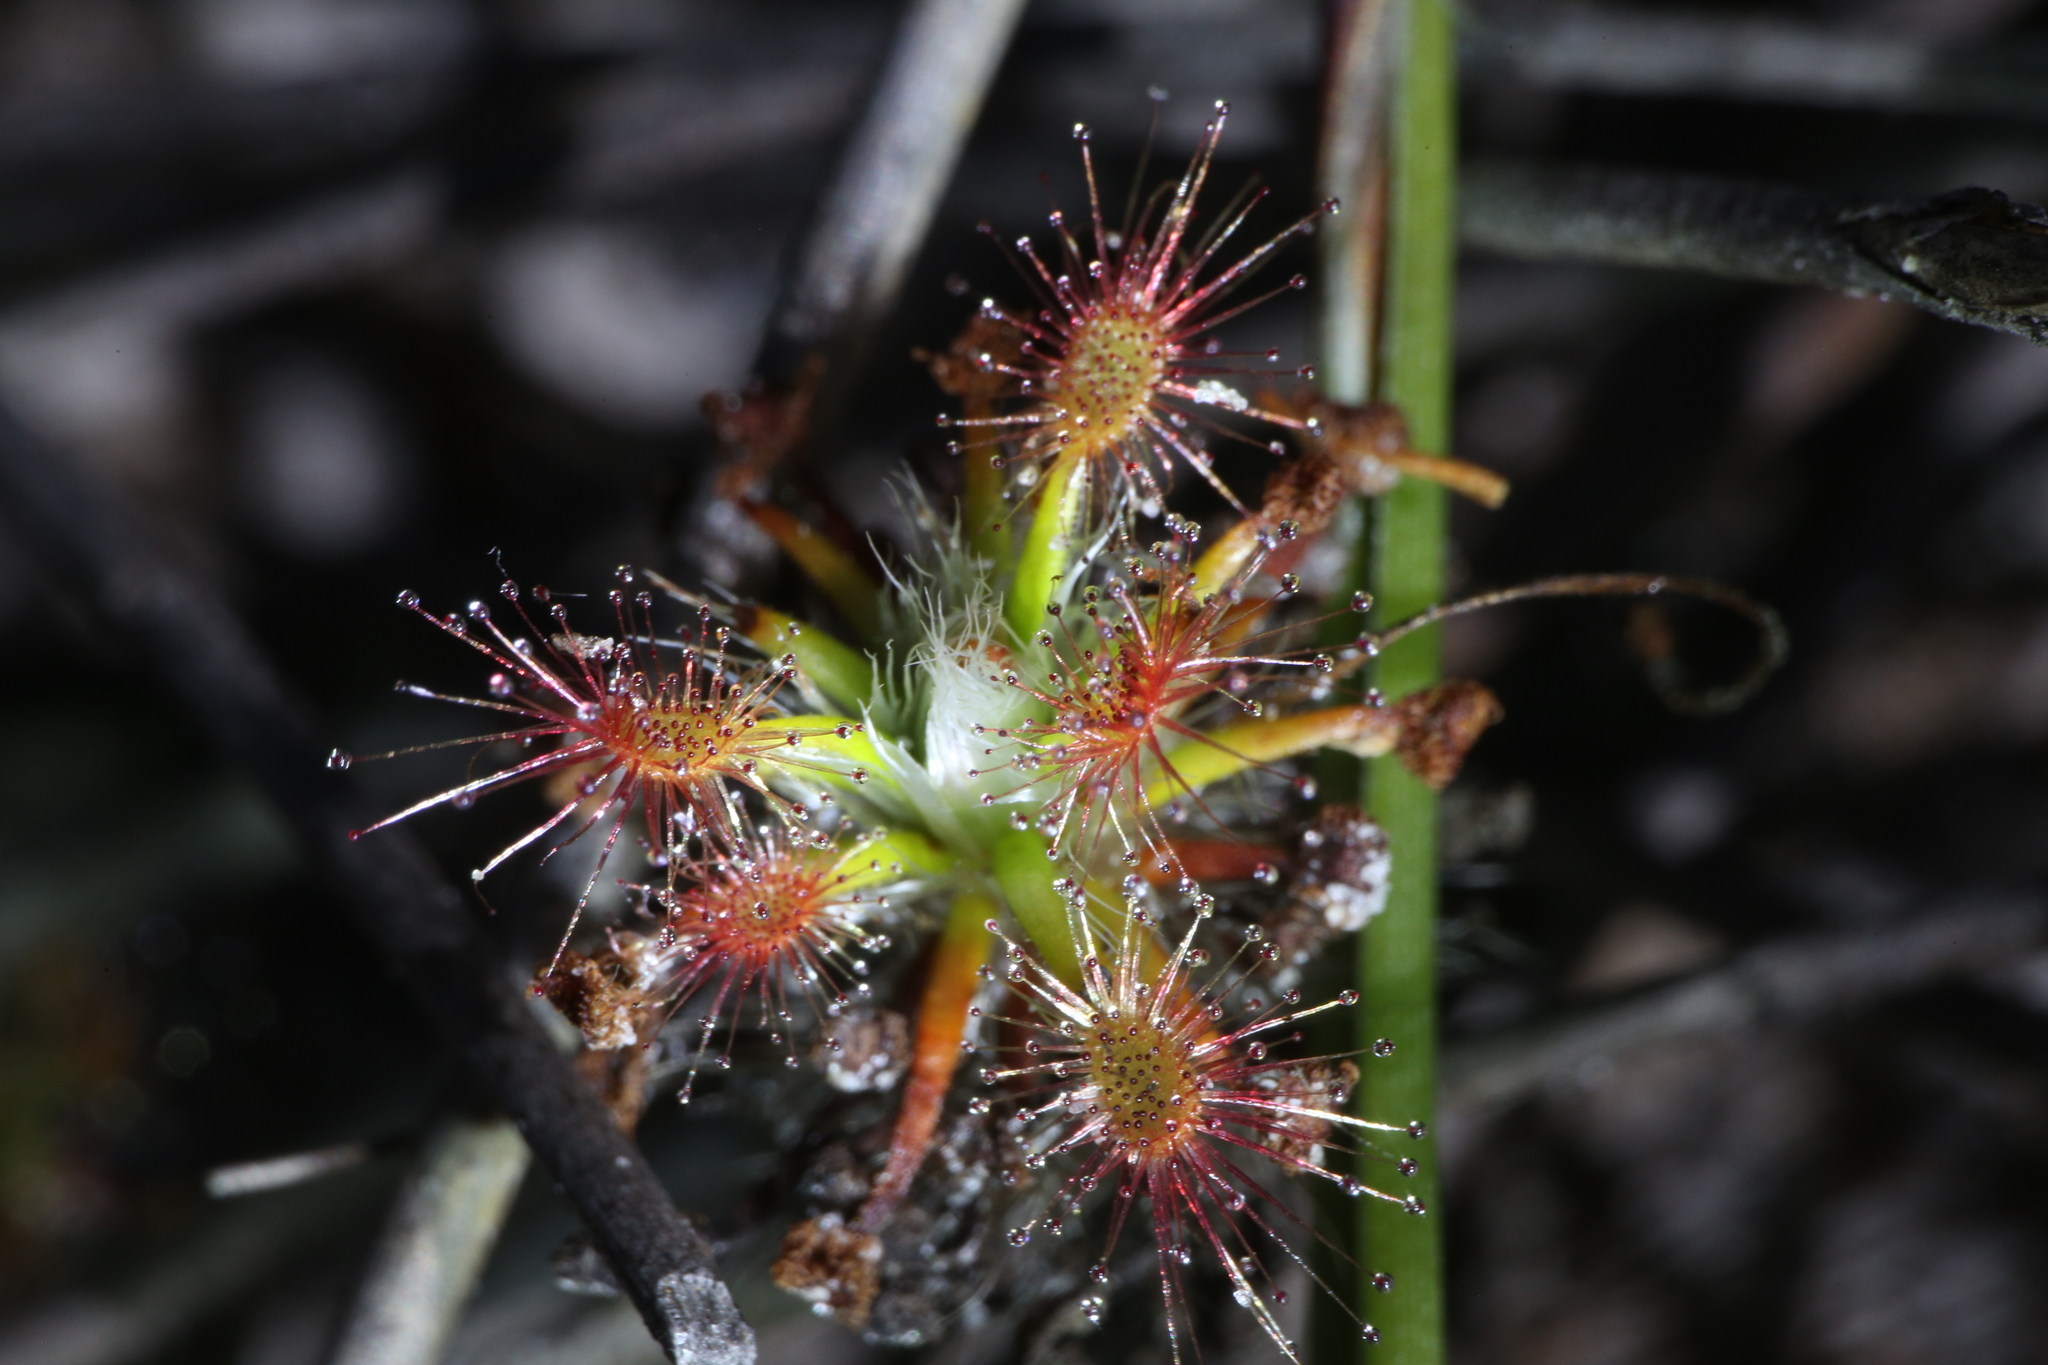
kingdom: Plantae
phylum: Tracheophyta
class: Magnoliopsida
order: Caryophyllales
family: Droseraceae
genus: Drosera
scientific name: Drosera verrucata
